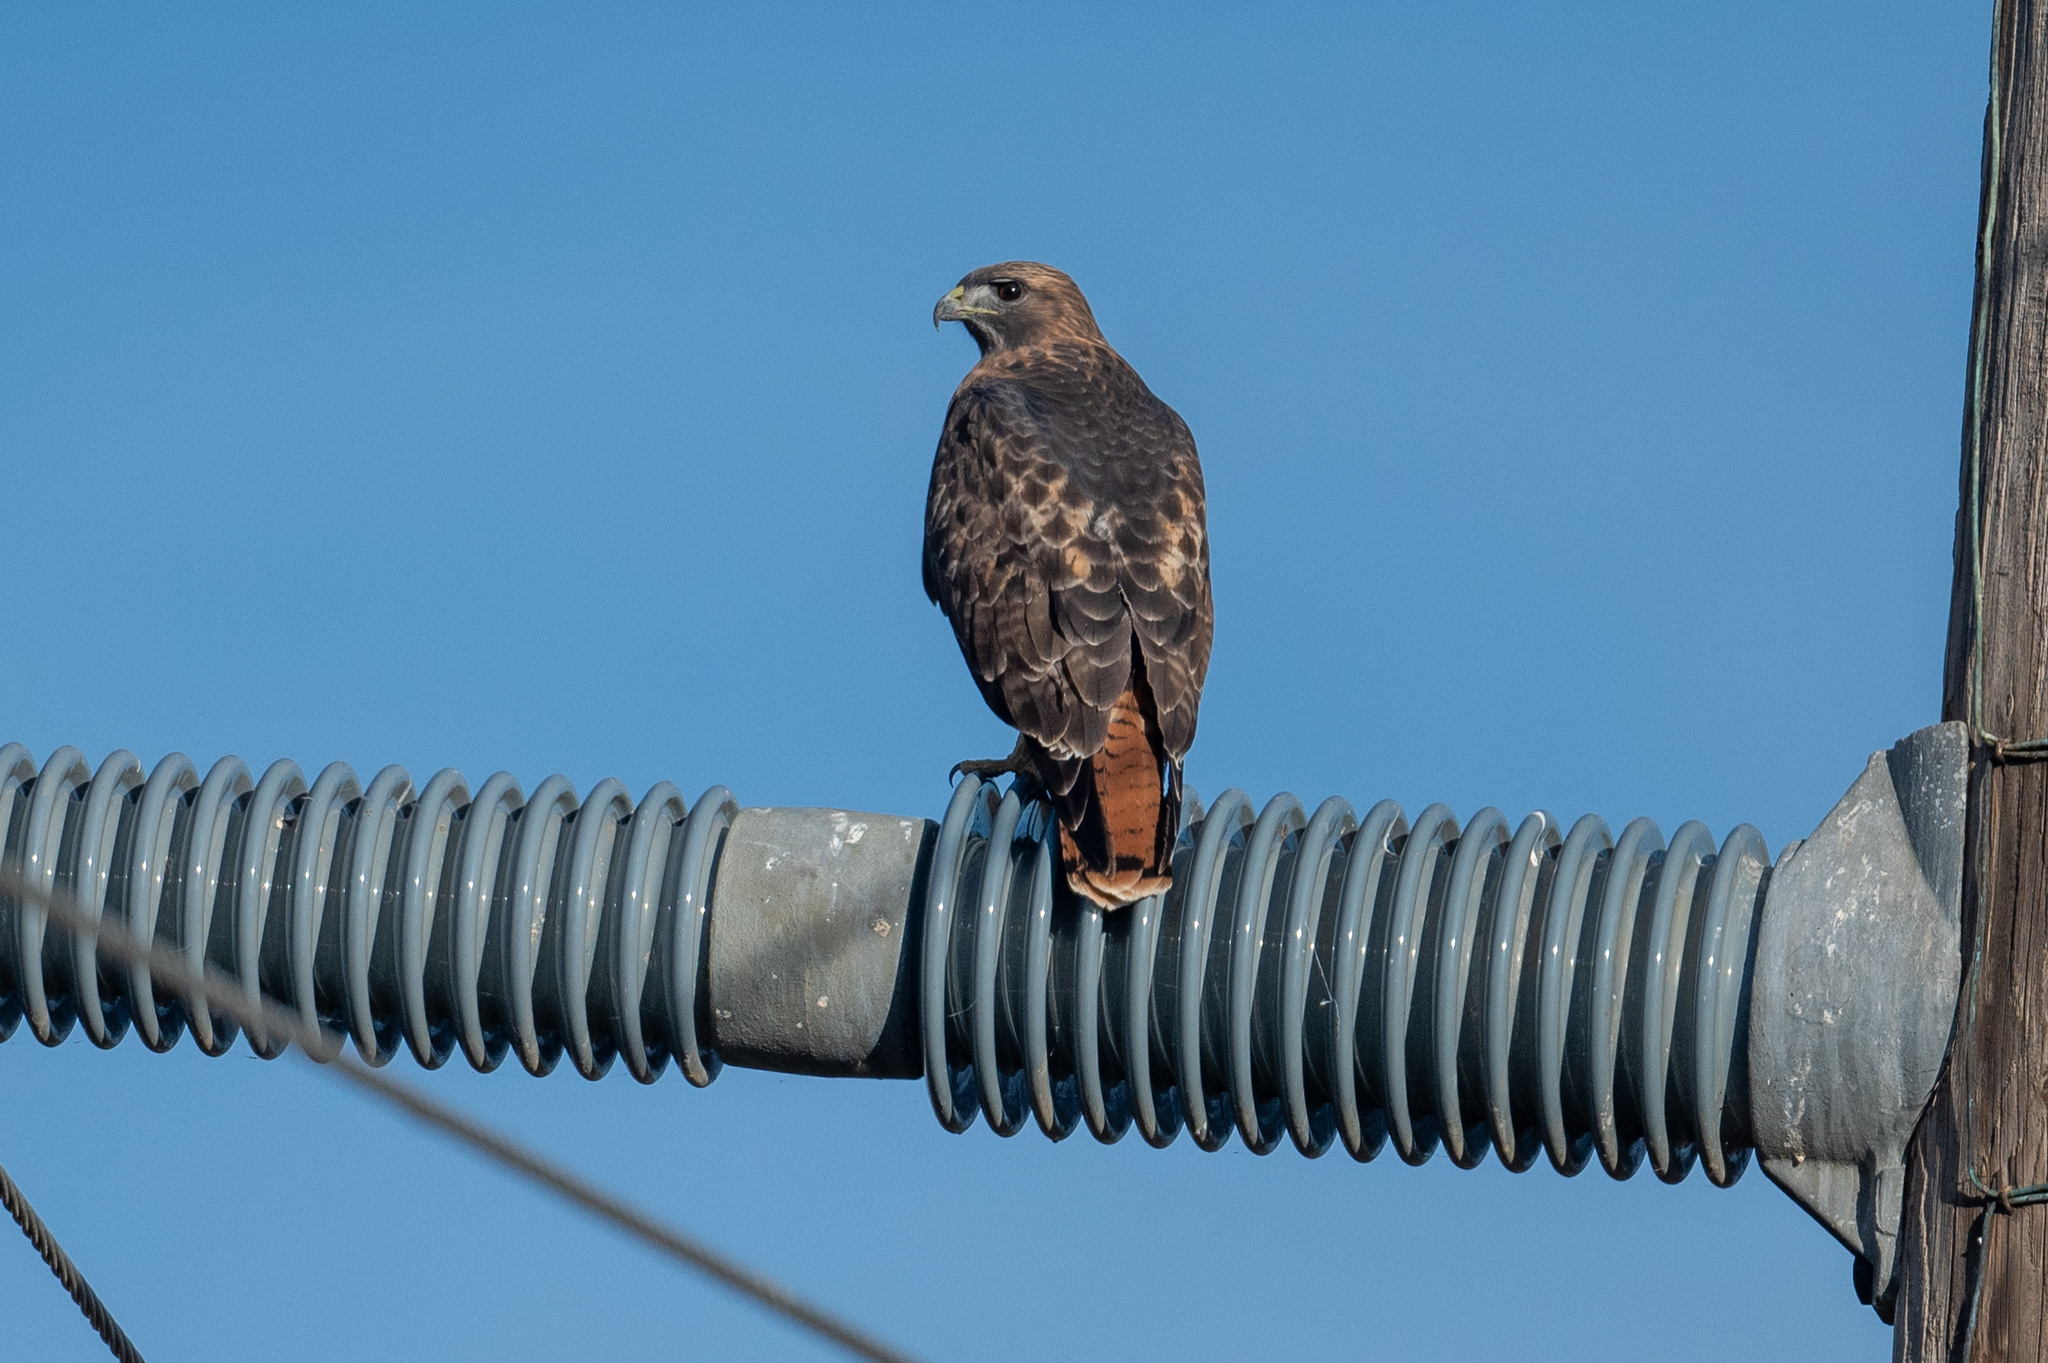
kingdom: Animalia
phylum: Chordata
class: Aves
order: Accipitriformes
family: Accipitridae
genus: Buteo
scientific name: Buteo jamaicensis
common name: Red-tailed hawk
